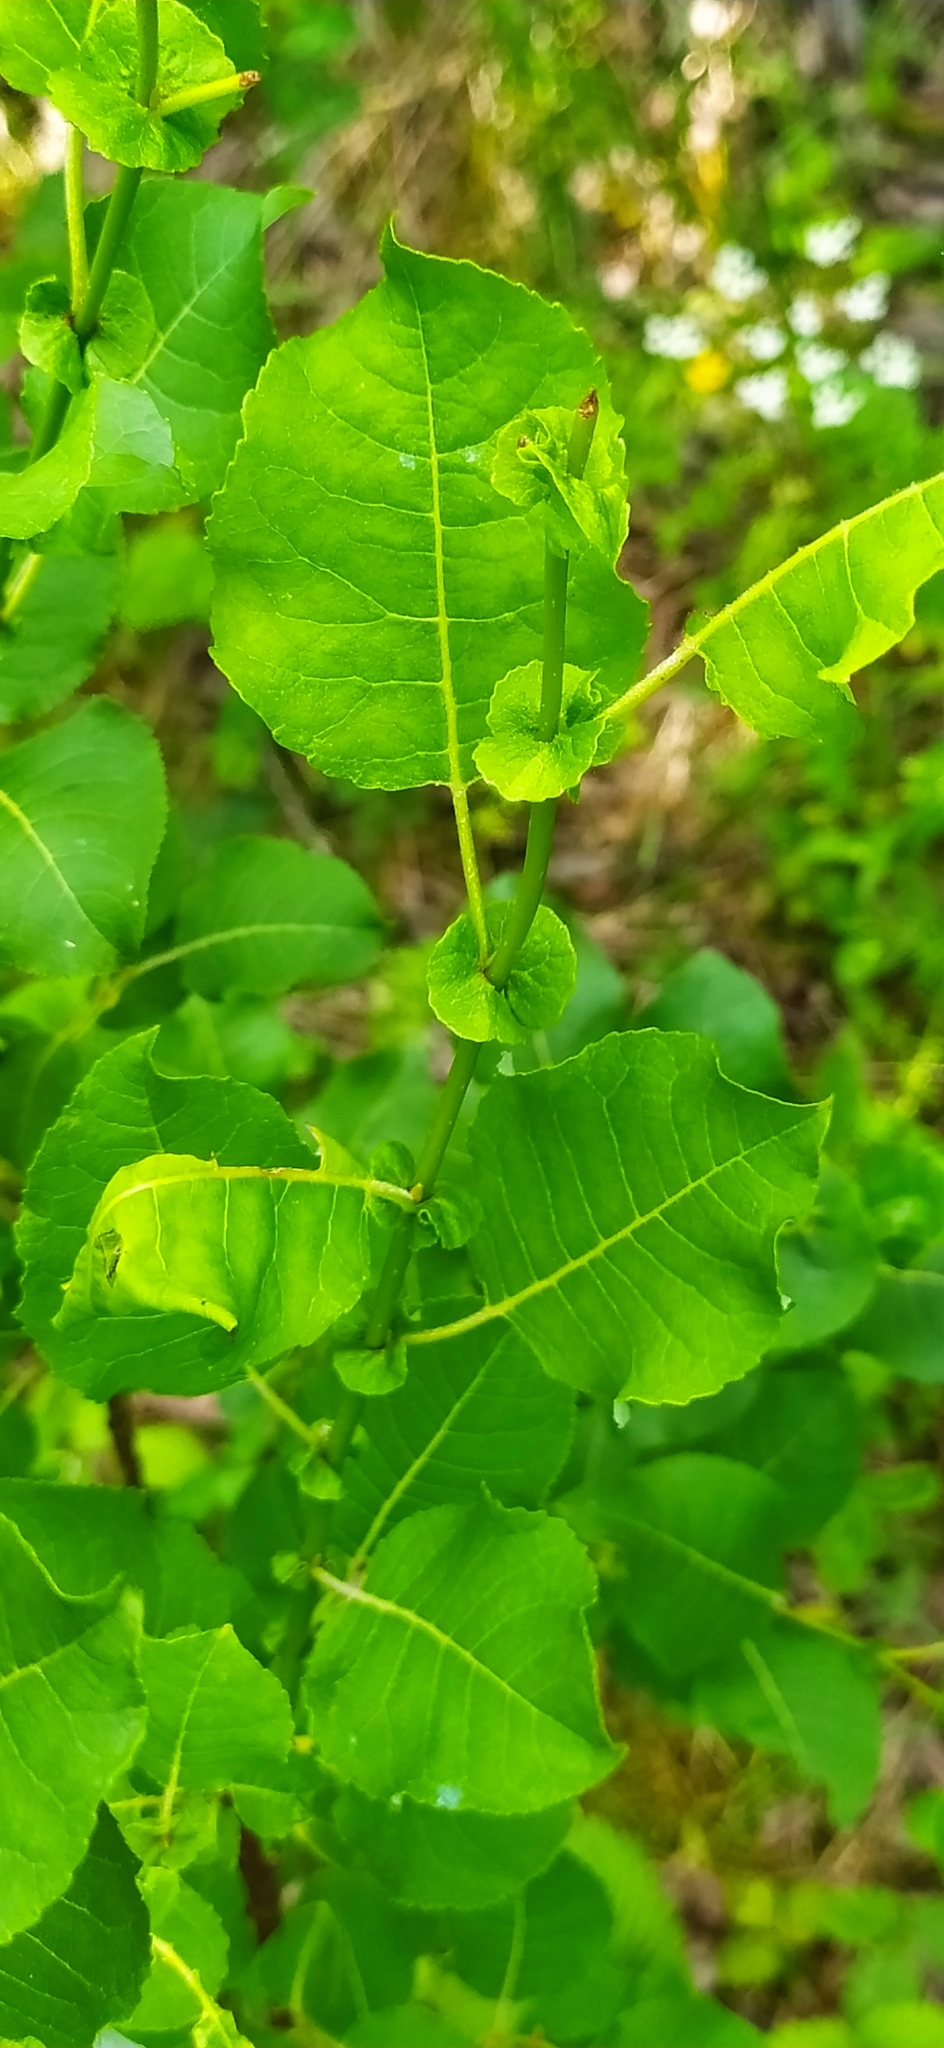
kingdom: Plantae
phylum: Tracheophyta
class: Magnoliopsida
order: Malpighiales
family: Salicaceae
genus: Salix
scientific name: Salix pyrolifolia
